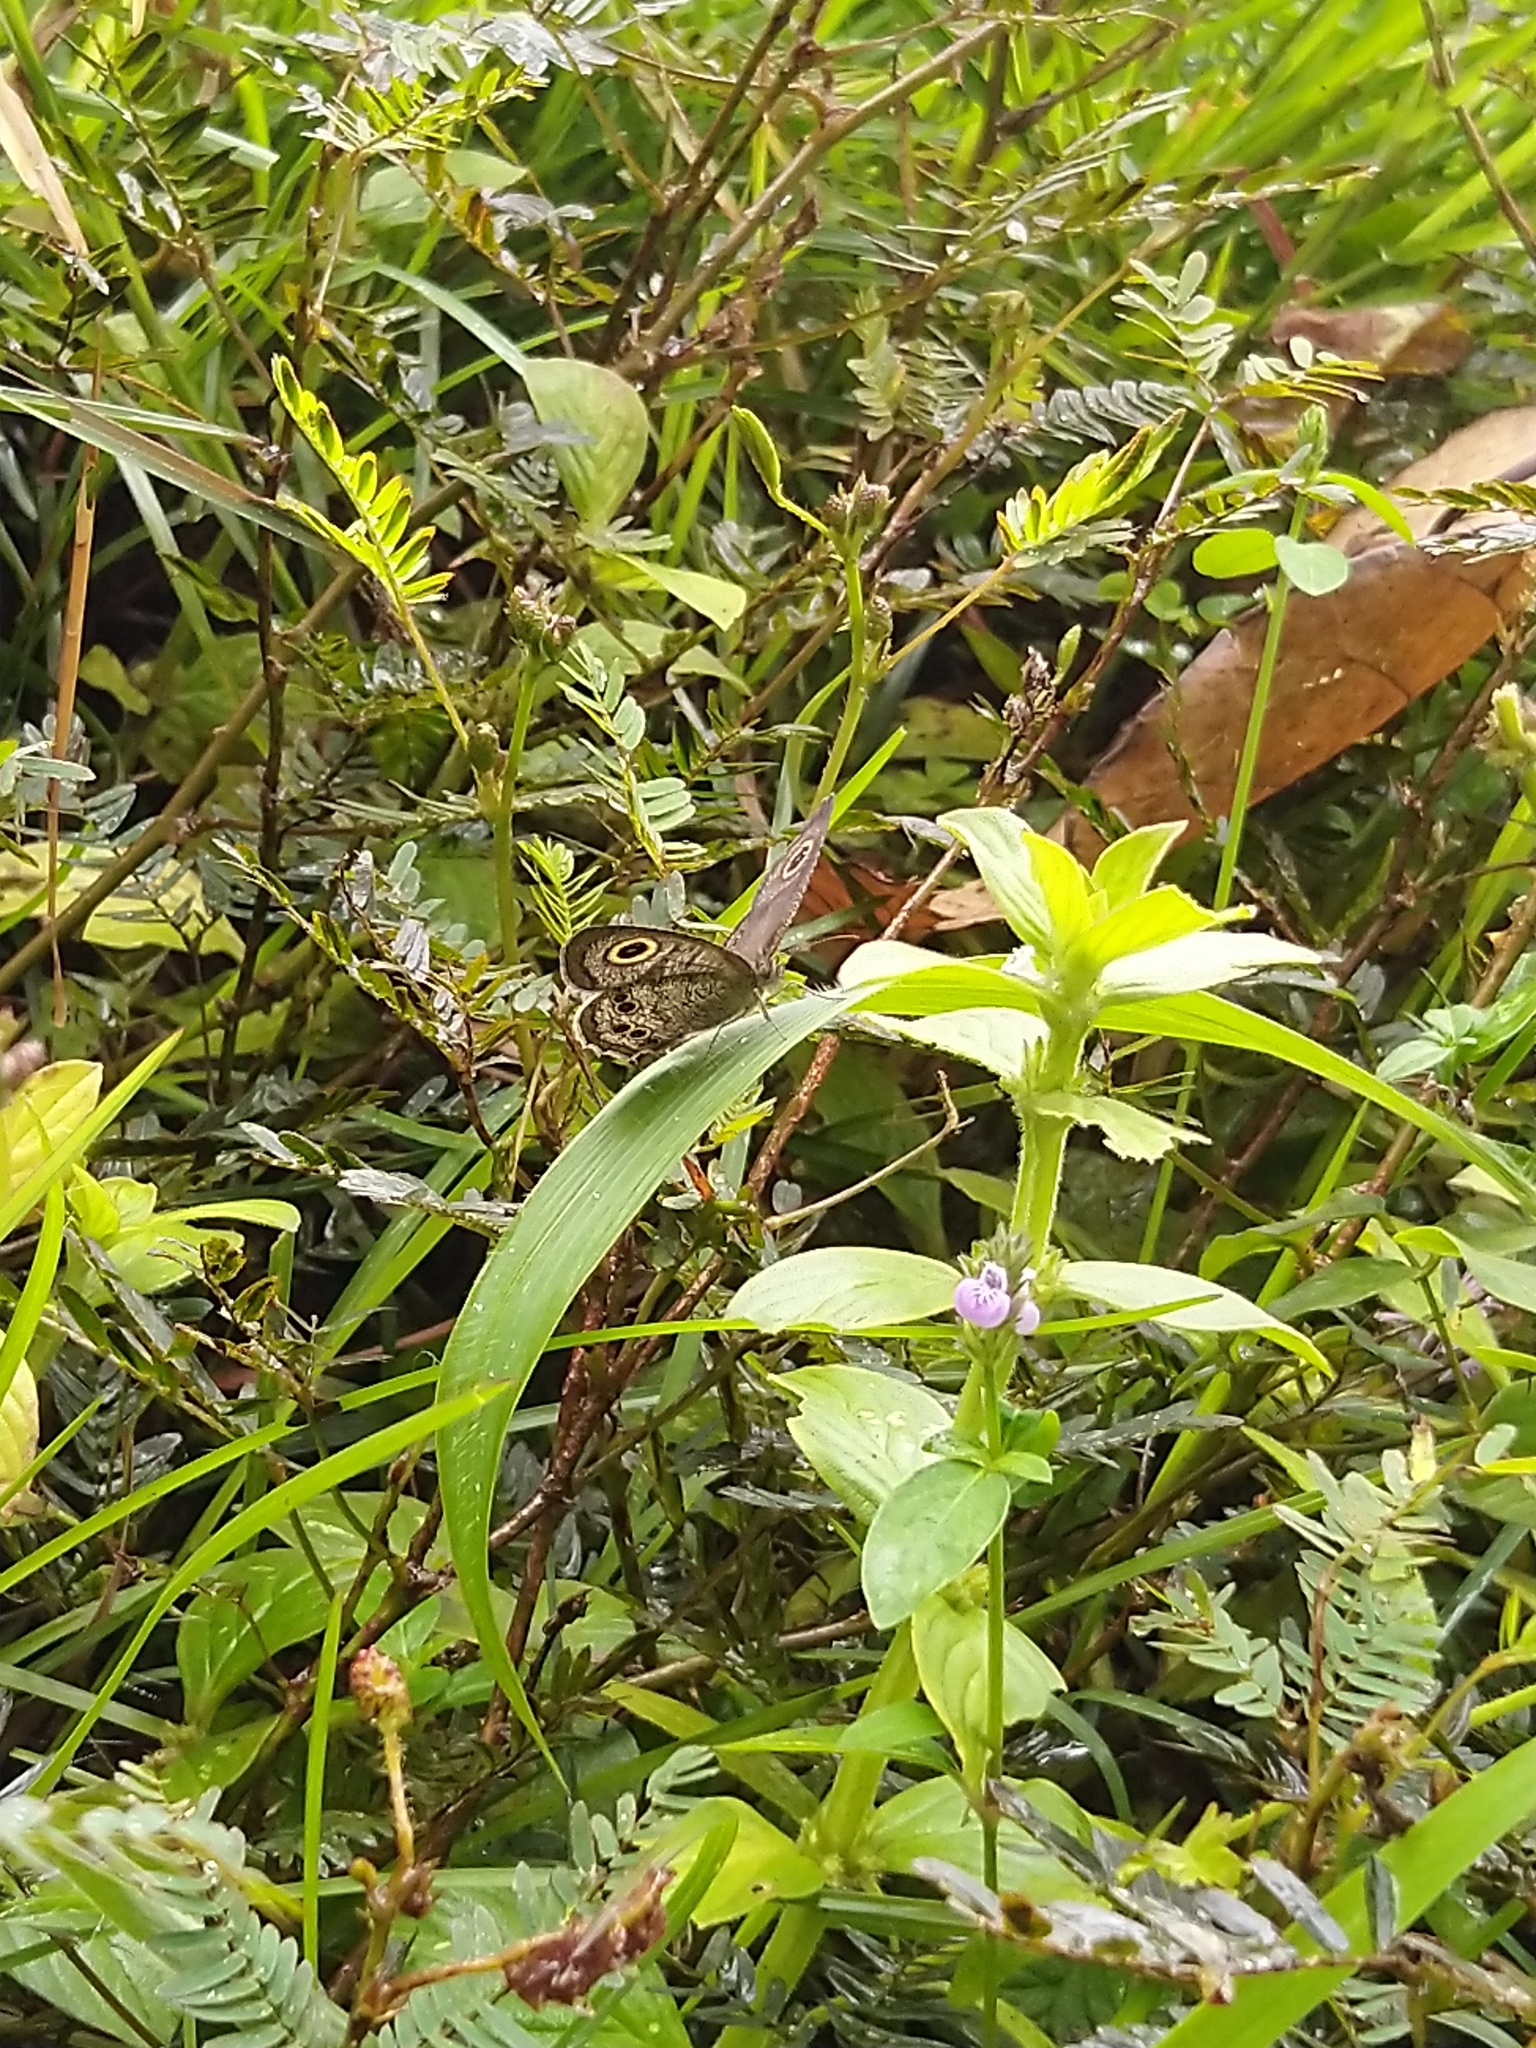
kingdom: Animalia
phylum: Arthropoda
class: Insecta
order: Lepidoptera
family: Nymphalidae
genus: Ypthima
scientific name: Ypthima baldus
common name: Common five-ring
